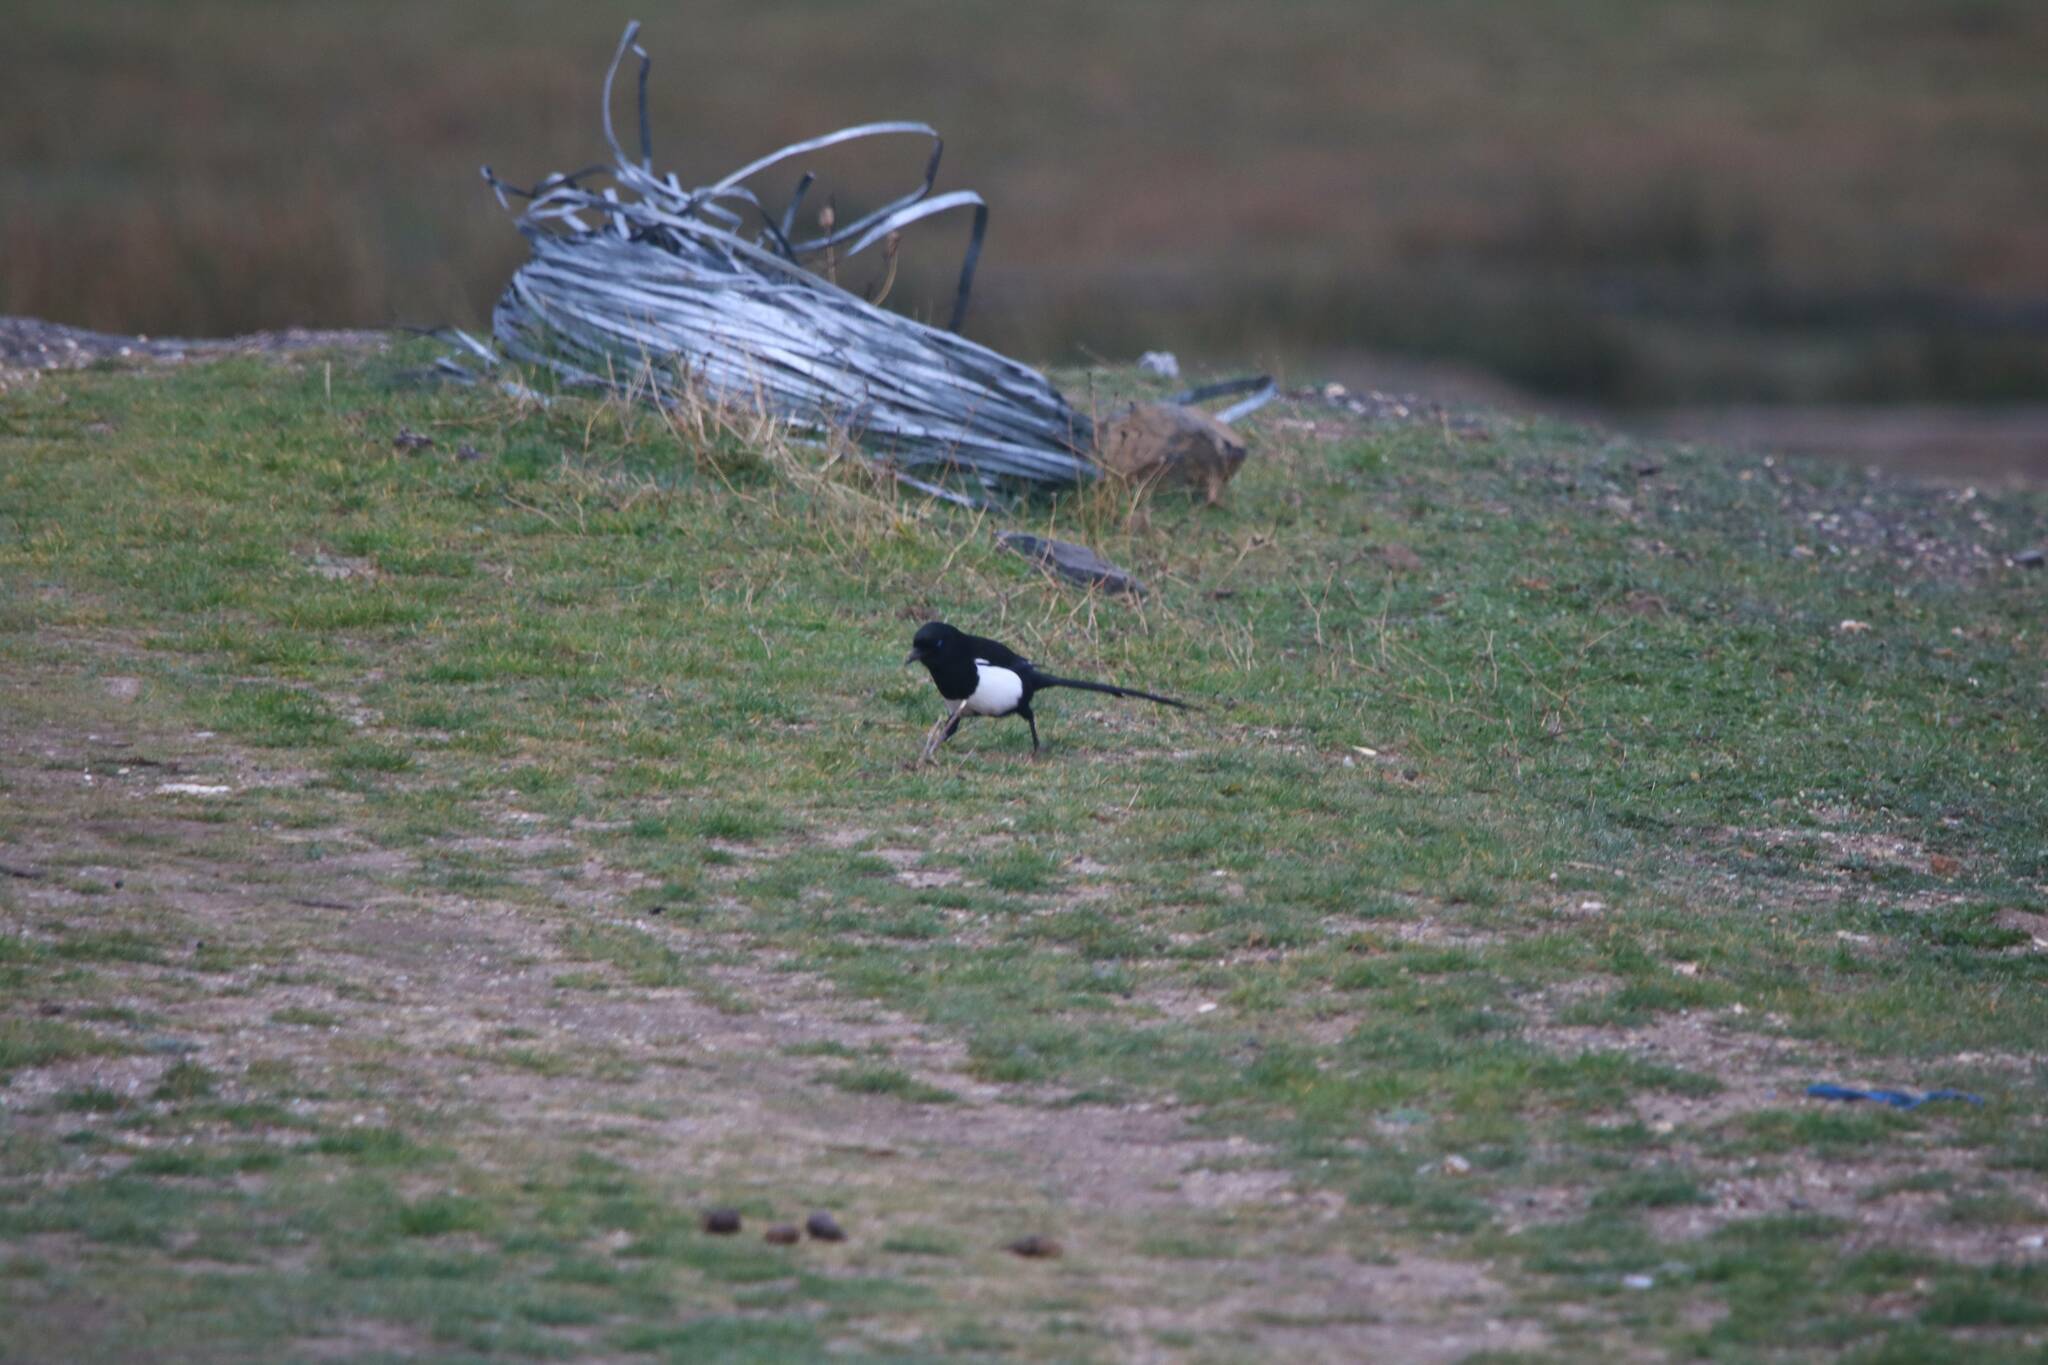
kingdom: Animalia
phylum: Chordata
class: Aves
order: Passeriformes
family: Corvidae
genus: Pica
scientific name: Pica mauritanica
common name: Maghreb magpie
